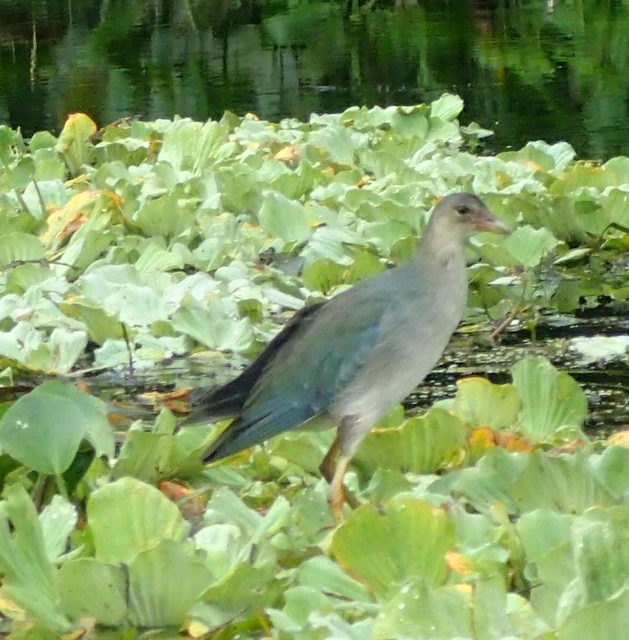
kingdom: Animalia
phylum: Chordata
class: Aves
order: Gruiformes
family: Rallidae
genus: Porphyrio
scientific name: Porphyrio martinica
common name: Purple gallinule
